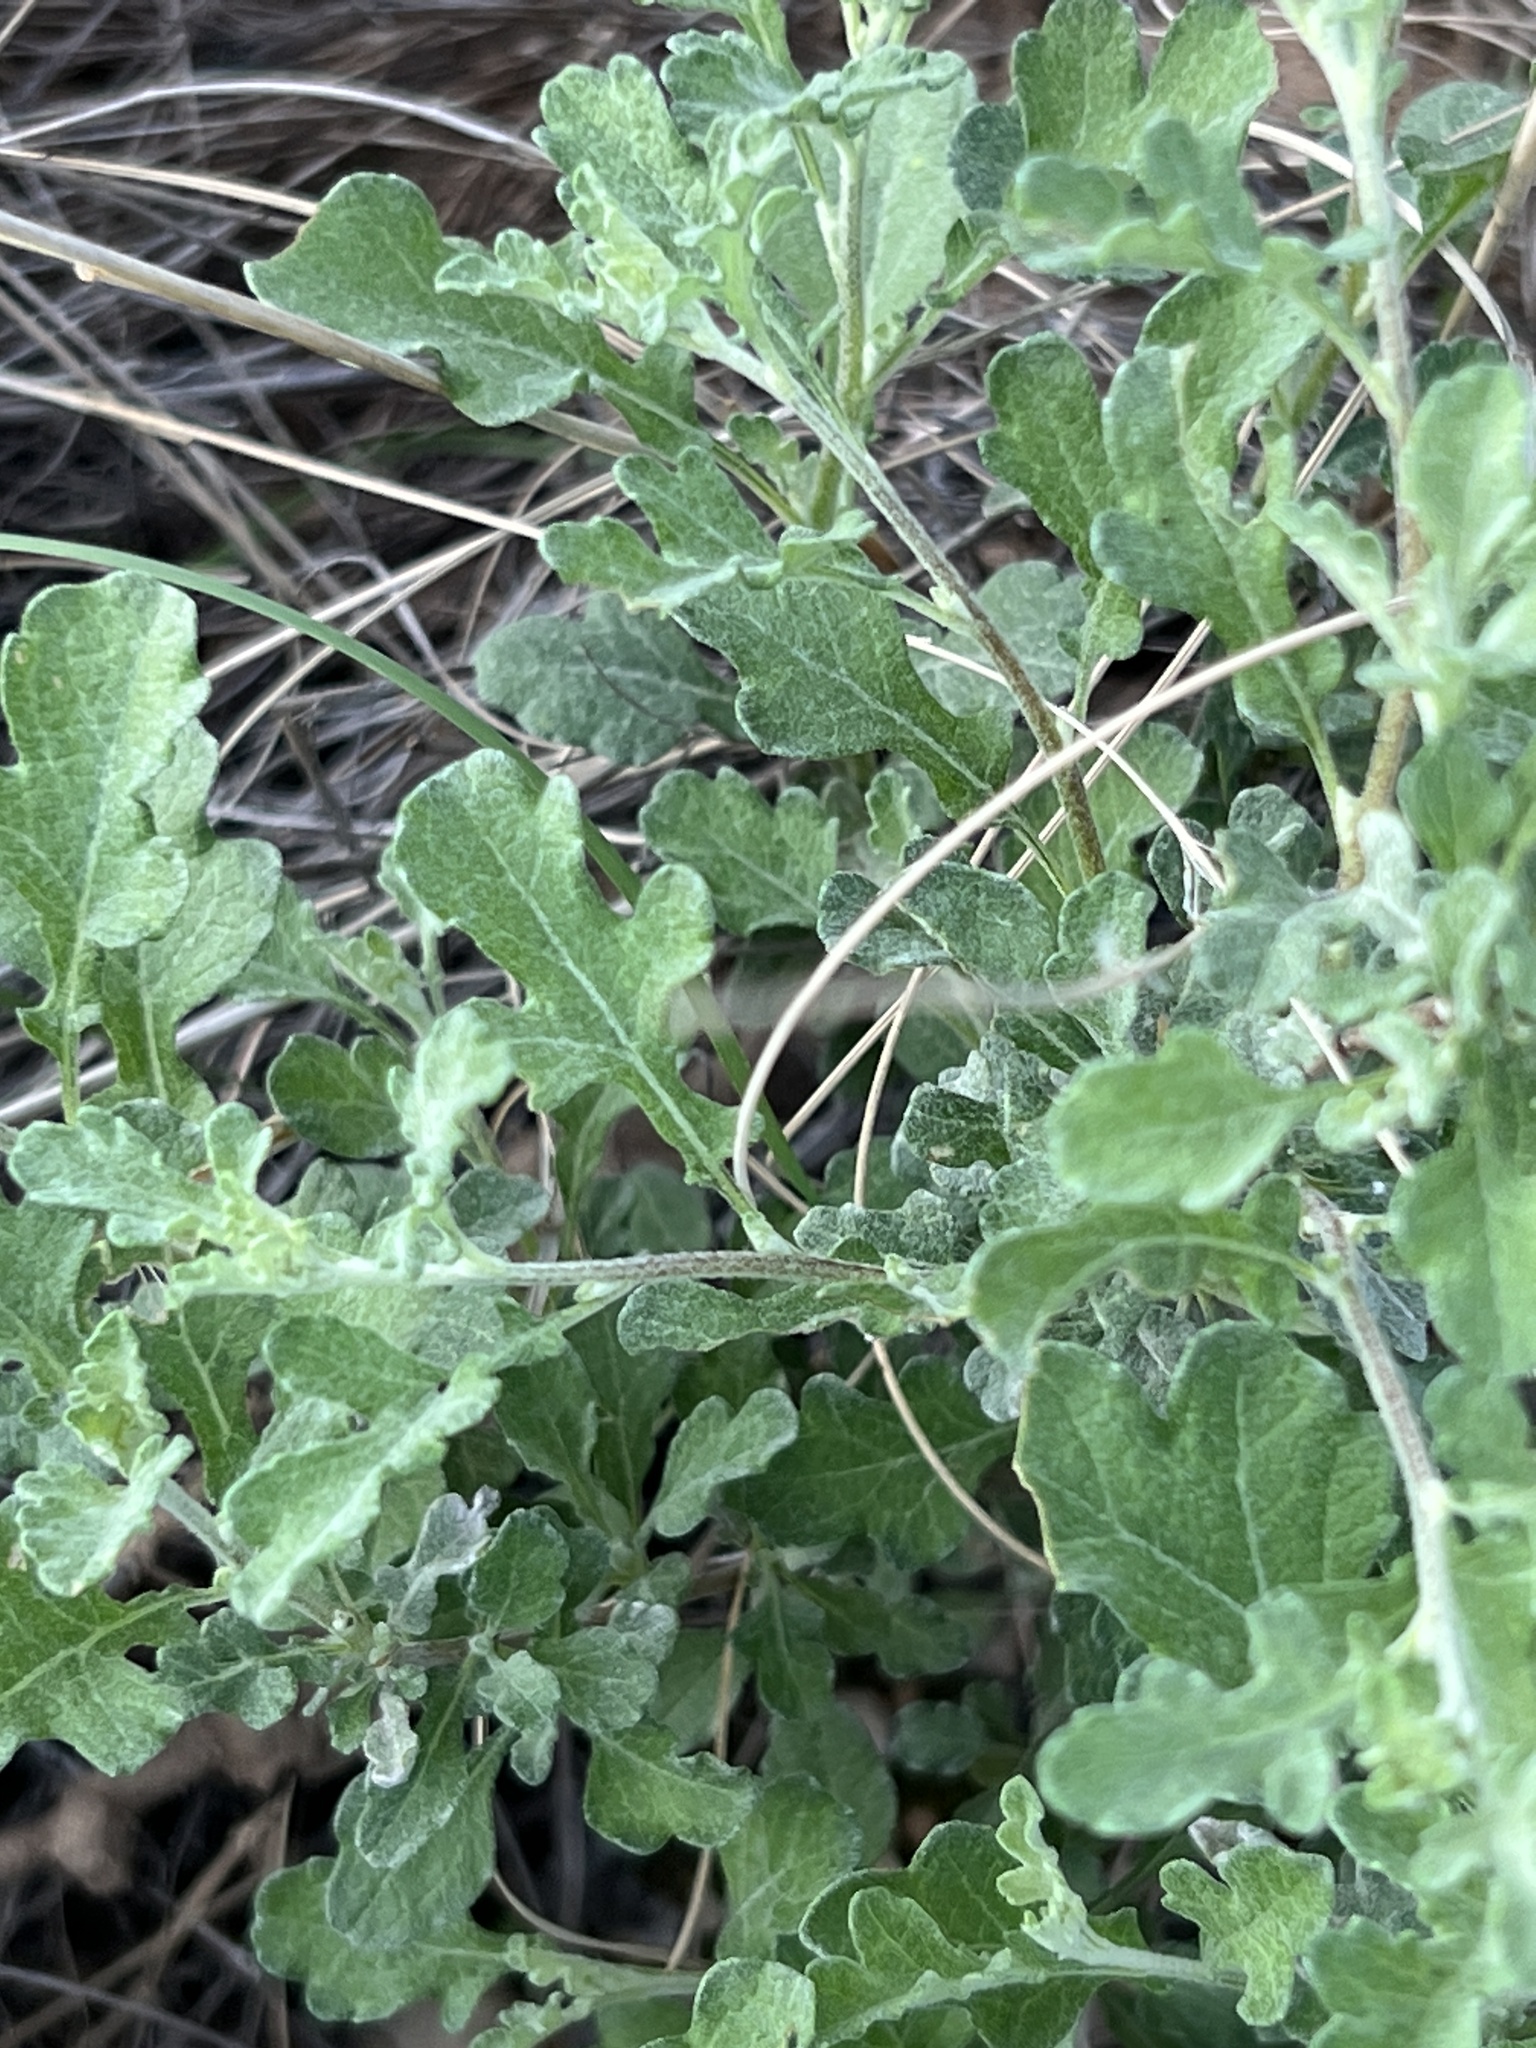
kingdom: Plantae
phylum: Tracheophyta
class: Magnoliopsida
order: Asterales
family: Asteraceae
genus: Parthenium
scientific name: Parthenium incanum
